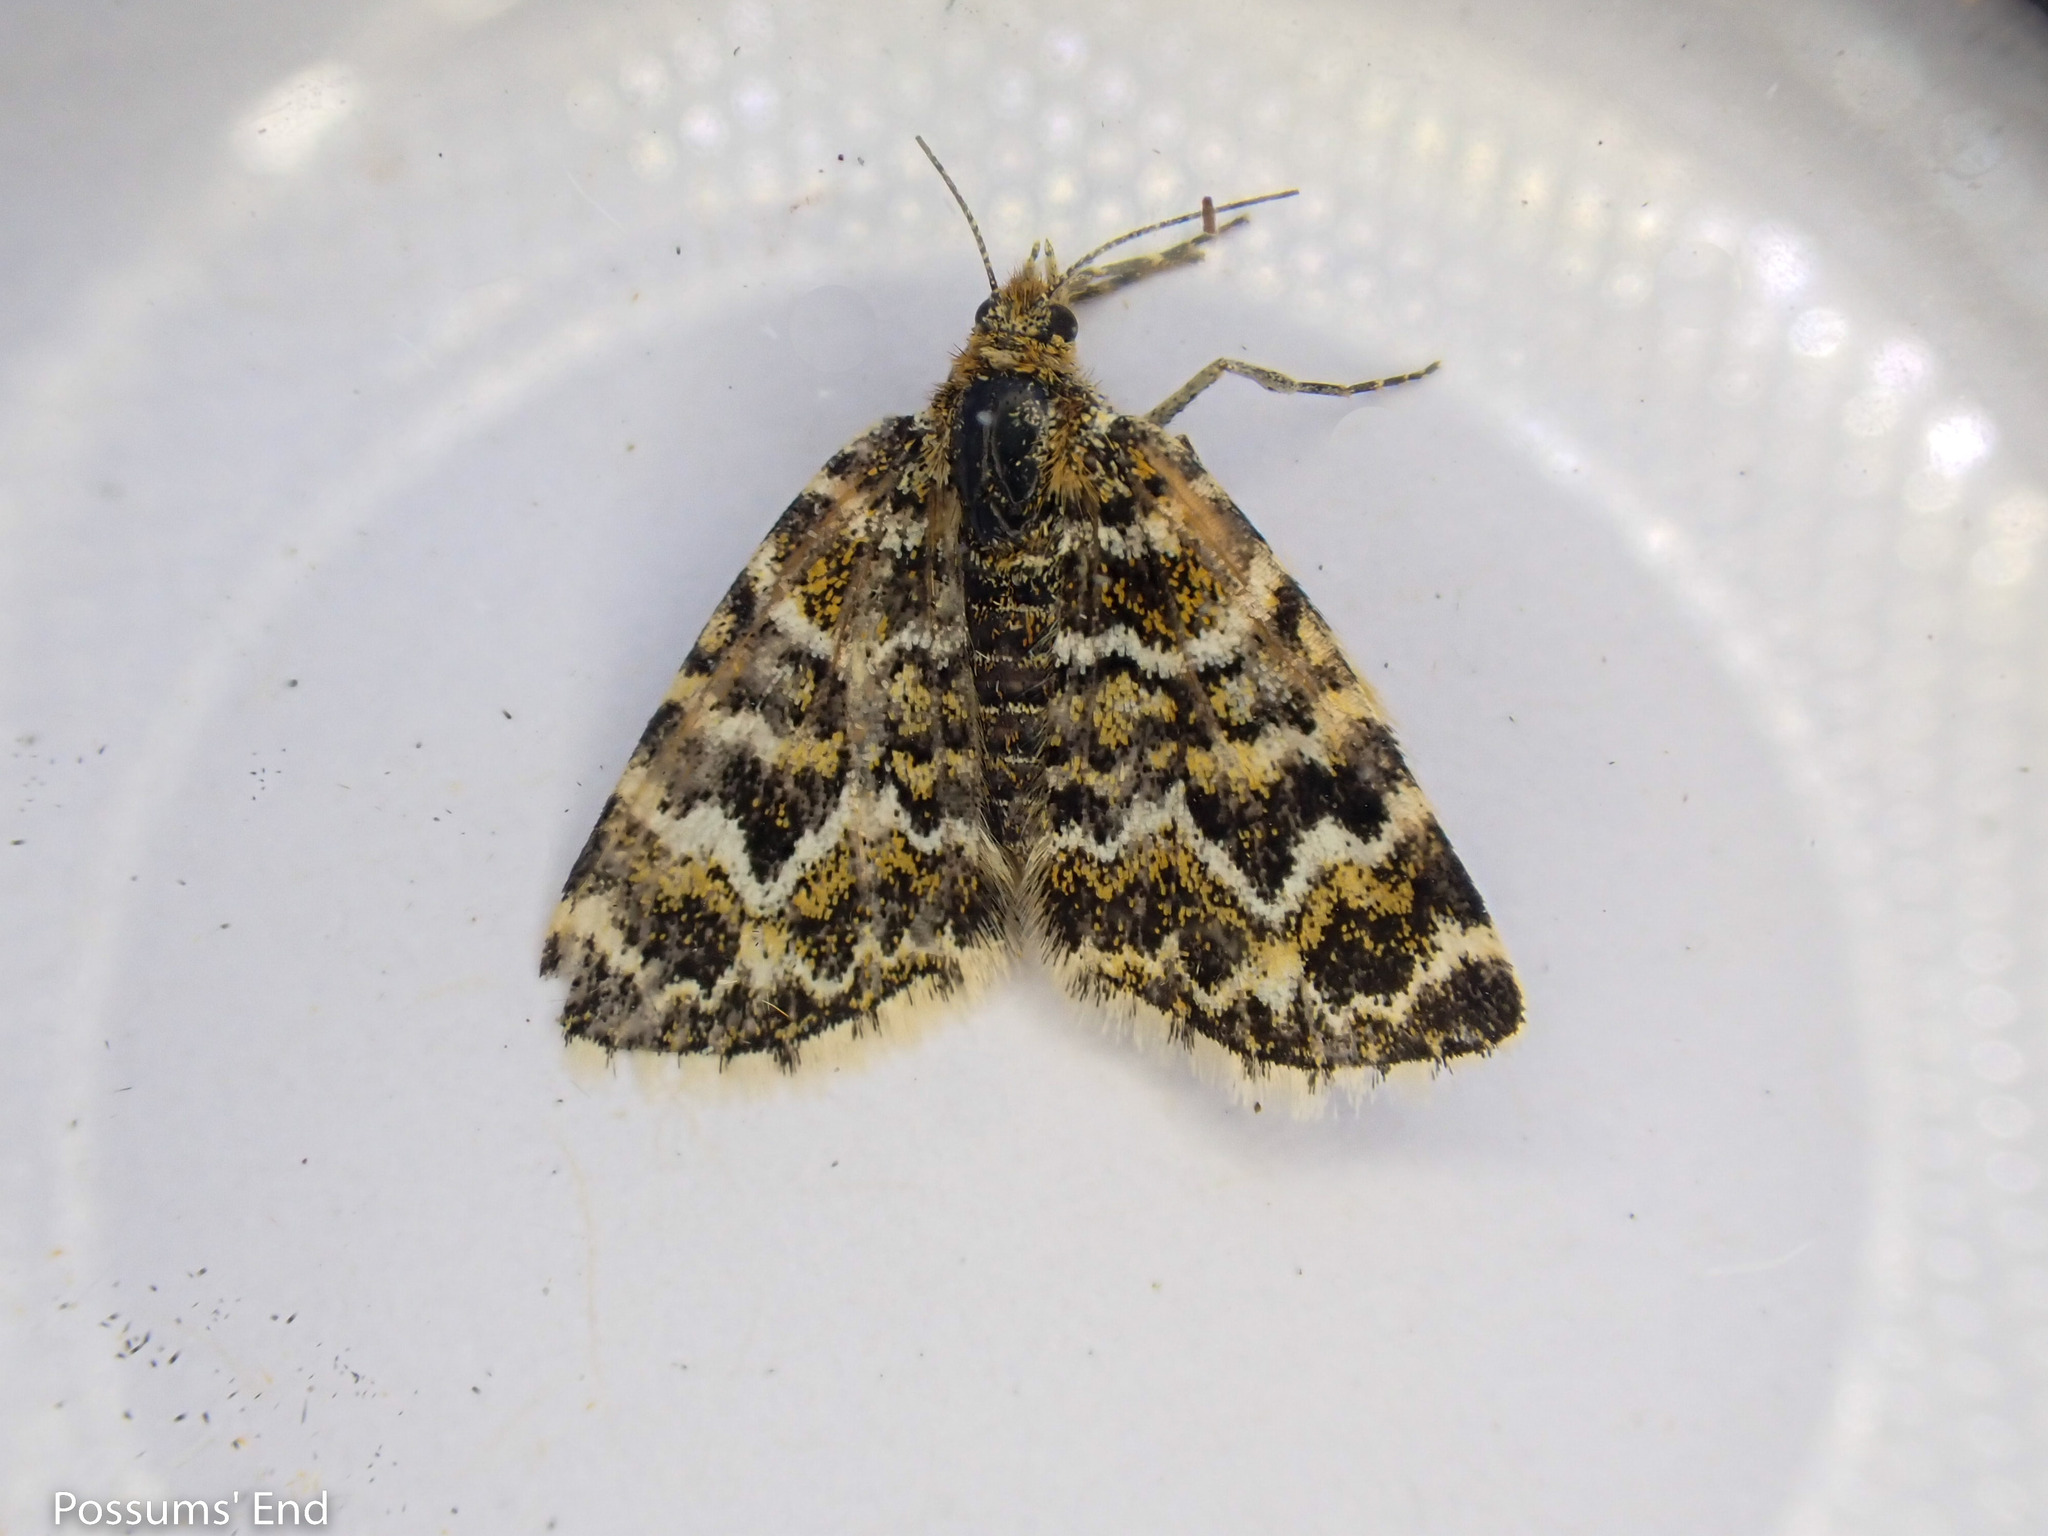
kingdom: Animalia
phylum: Arthropoda
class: Insecta
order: Lepidoptera
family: Geometridae
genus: Notoreas
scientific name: Notoreas arcuata
